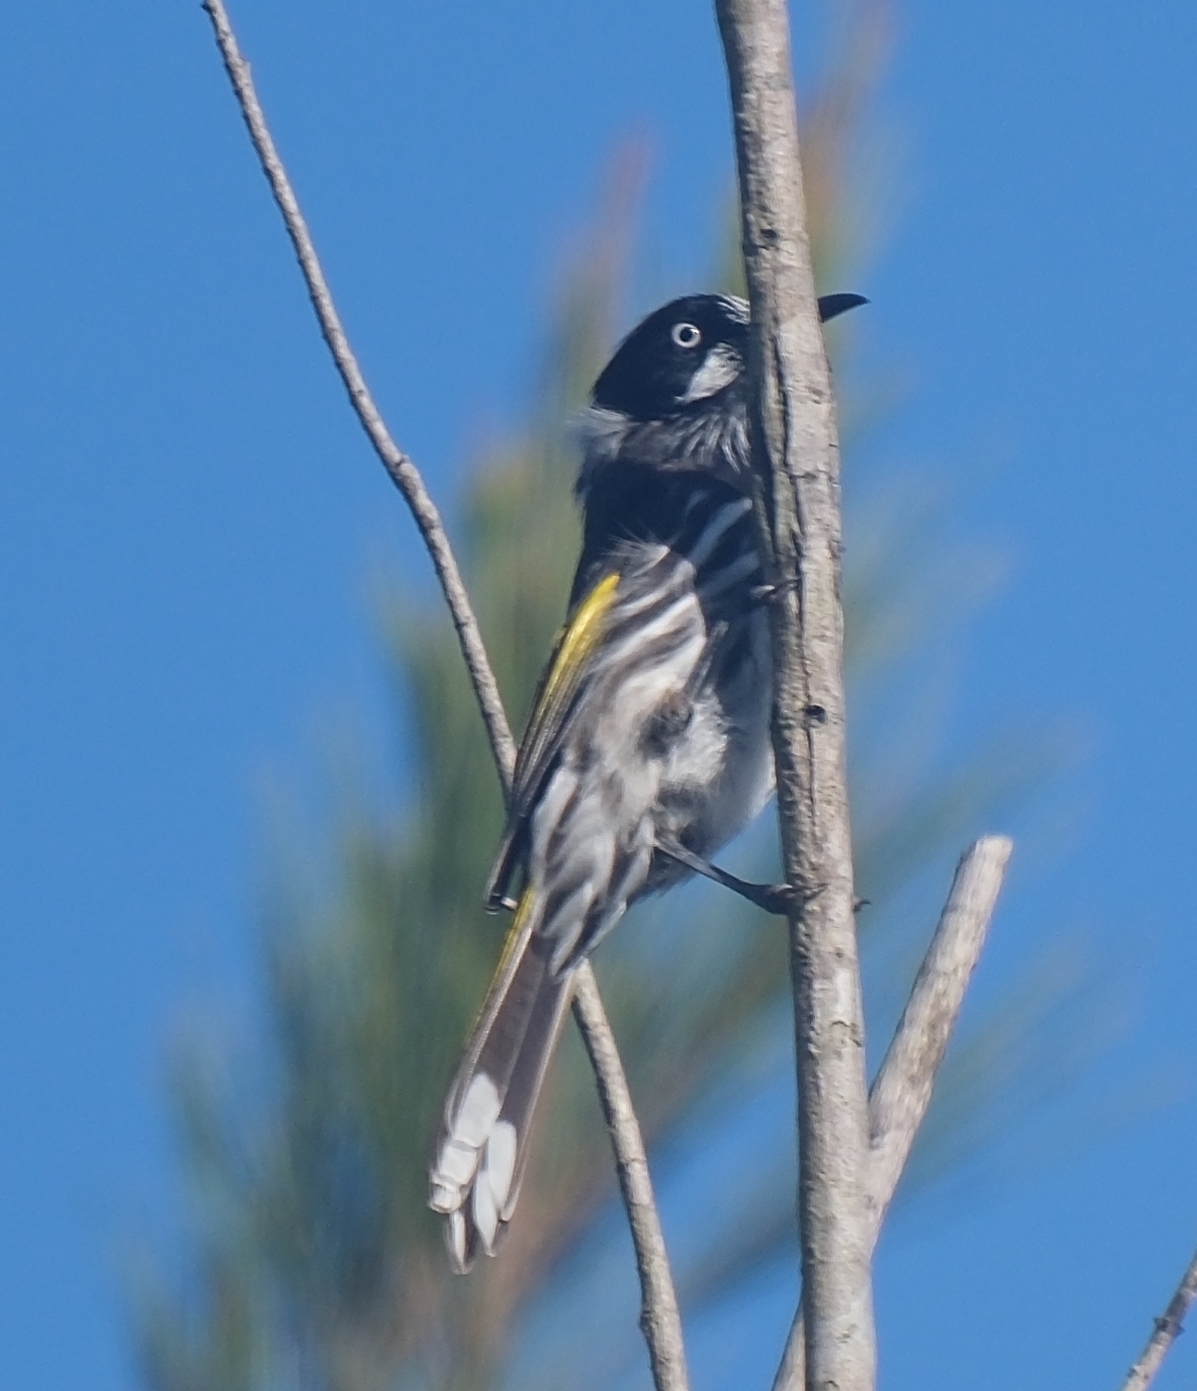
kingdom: Animalia
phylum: Chordata
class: Aves
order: Passeriformes
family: Meliphagidae
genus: Phylidonyris
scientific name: Phylidonyris novaehollandiae
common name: New holland honeyeater
